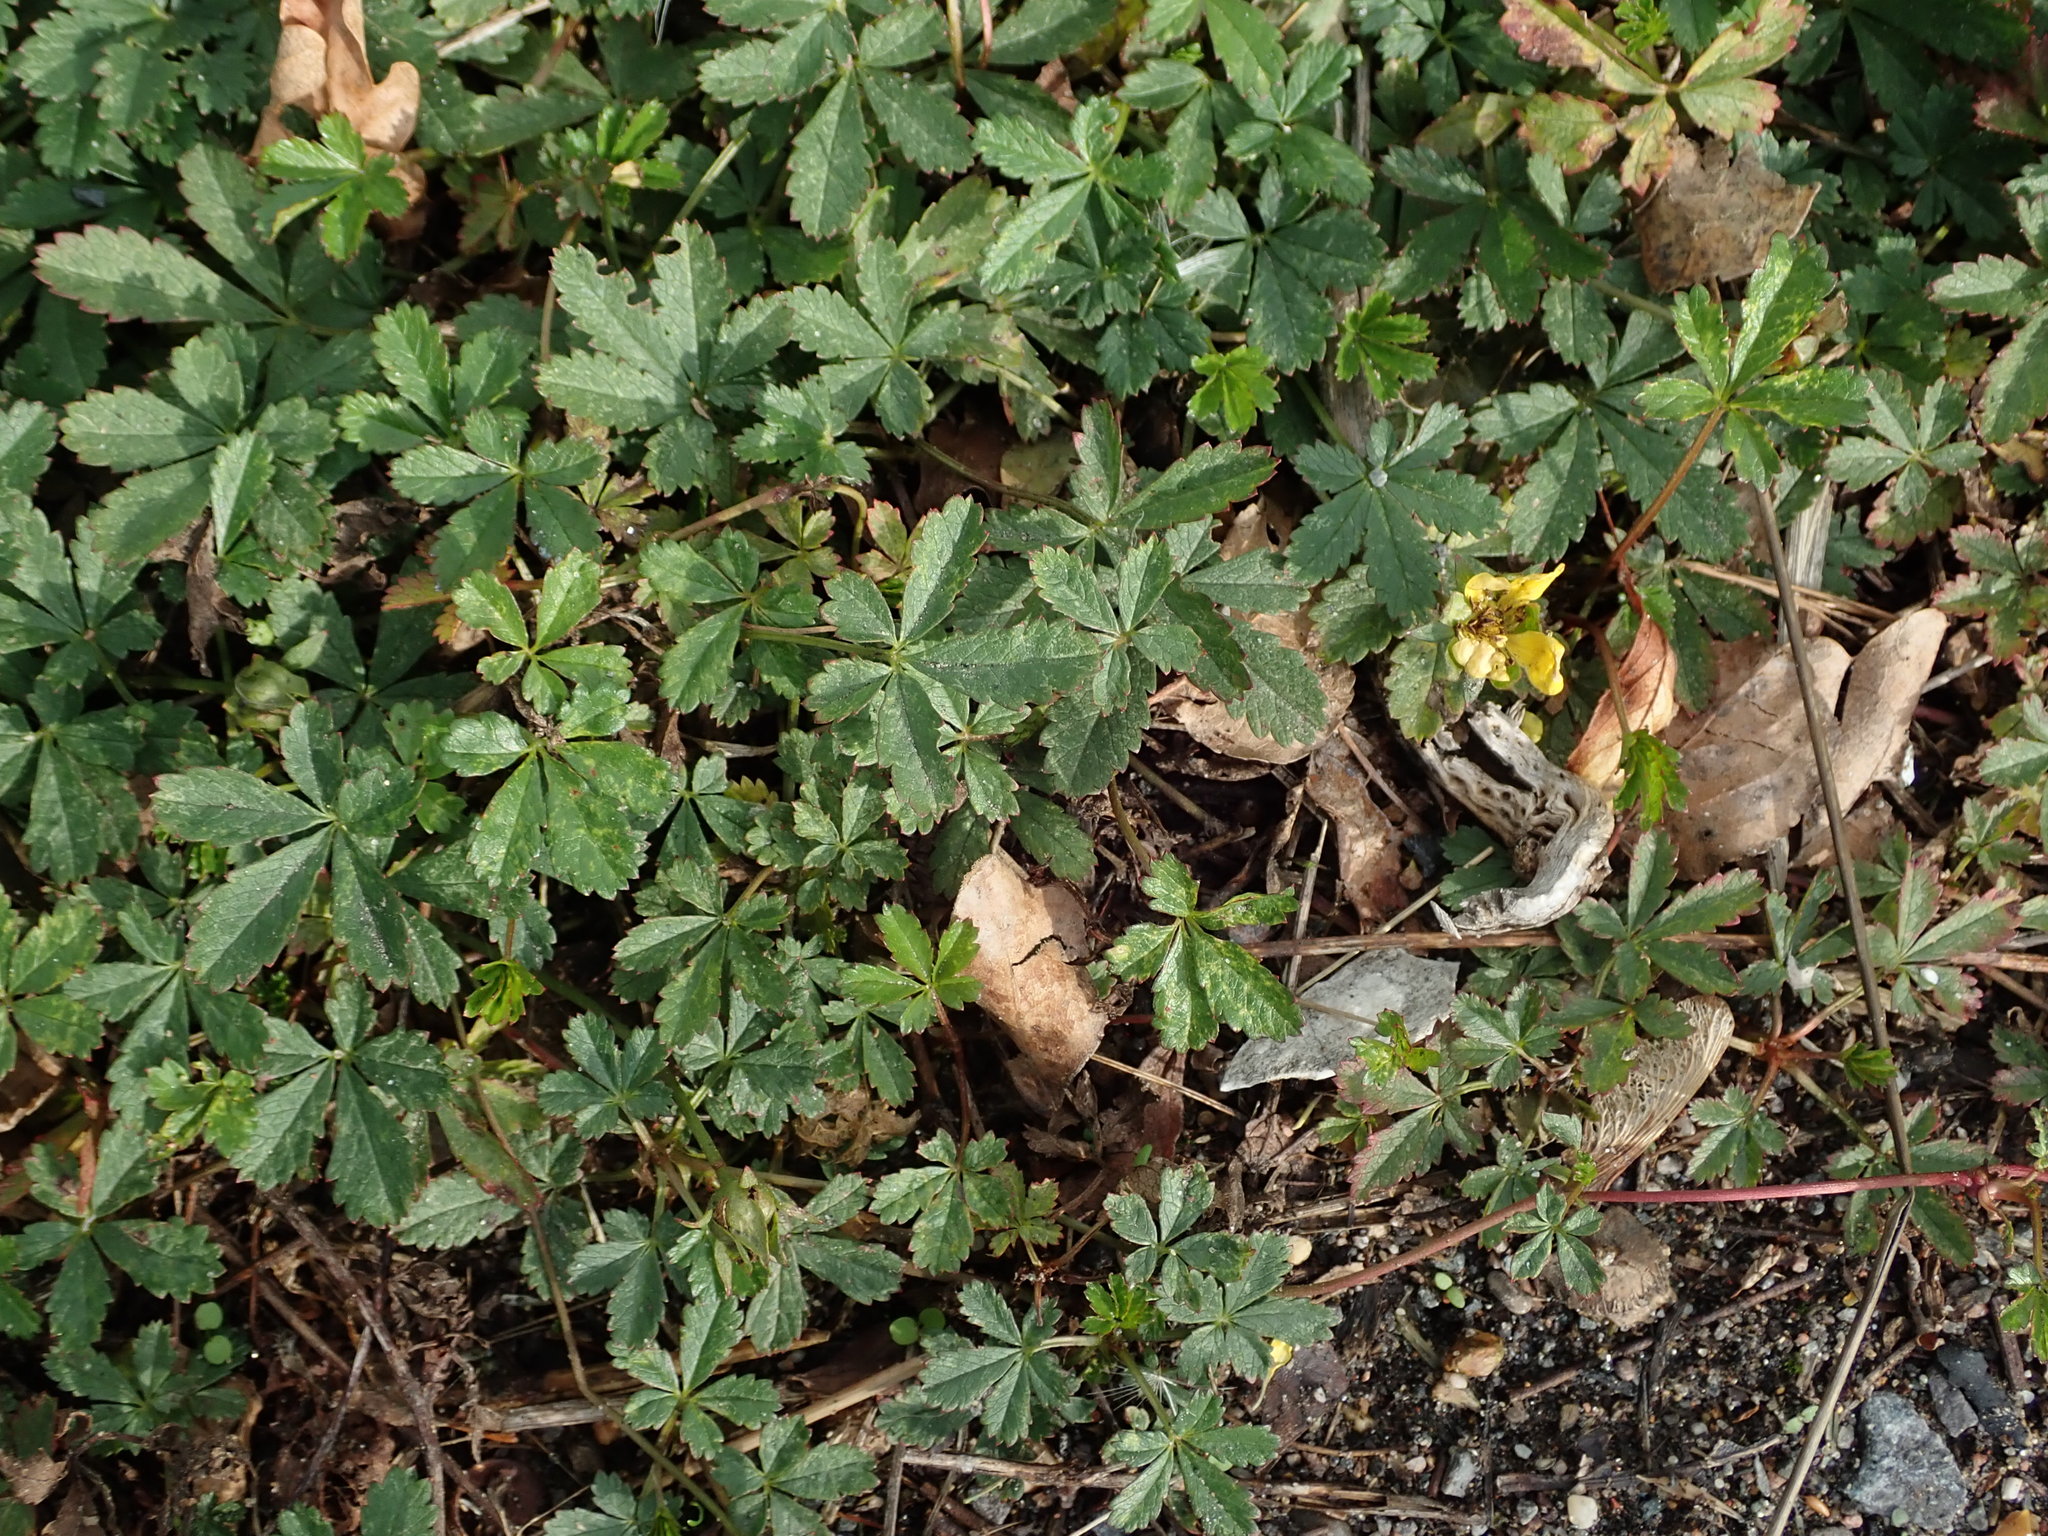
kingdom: Plantae
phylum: Tracheophyta
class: Magnoliopsida
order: Rosales
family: Rosaceae
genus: Potentilla
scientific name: Potentilla reptans
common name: Creeping cinquefoil
